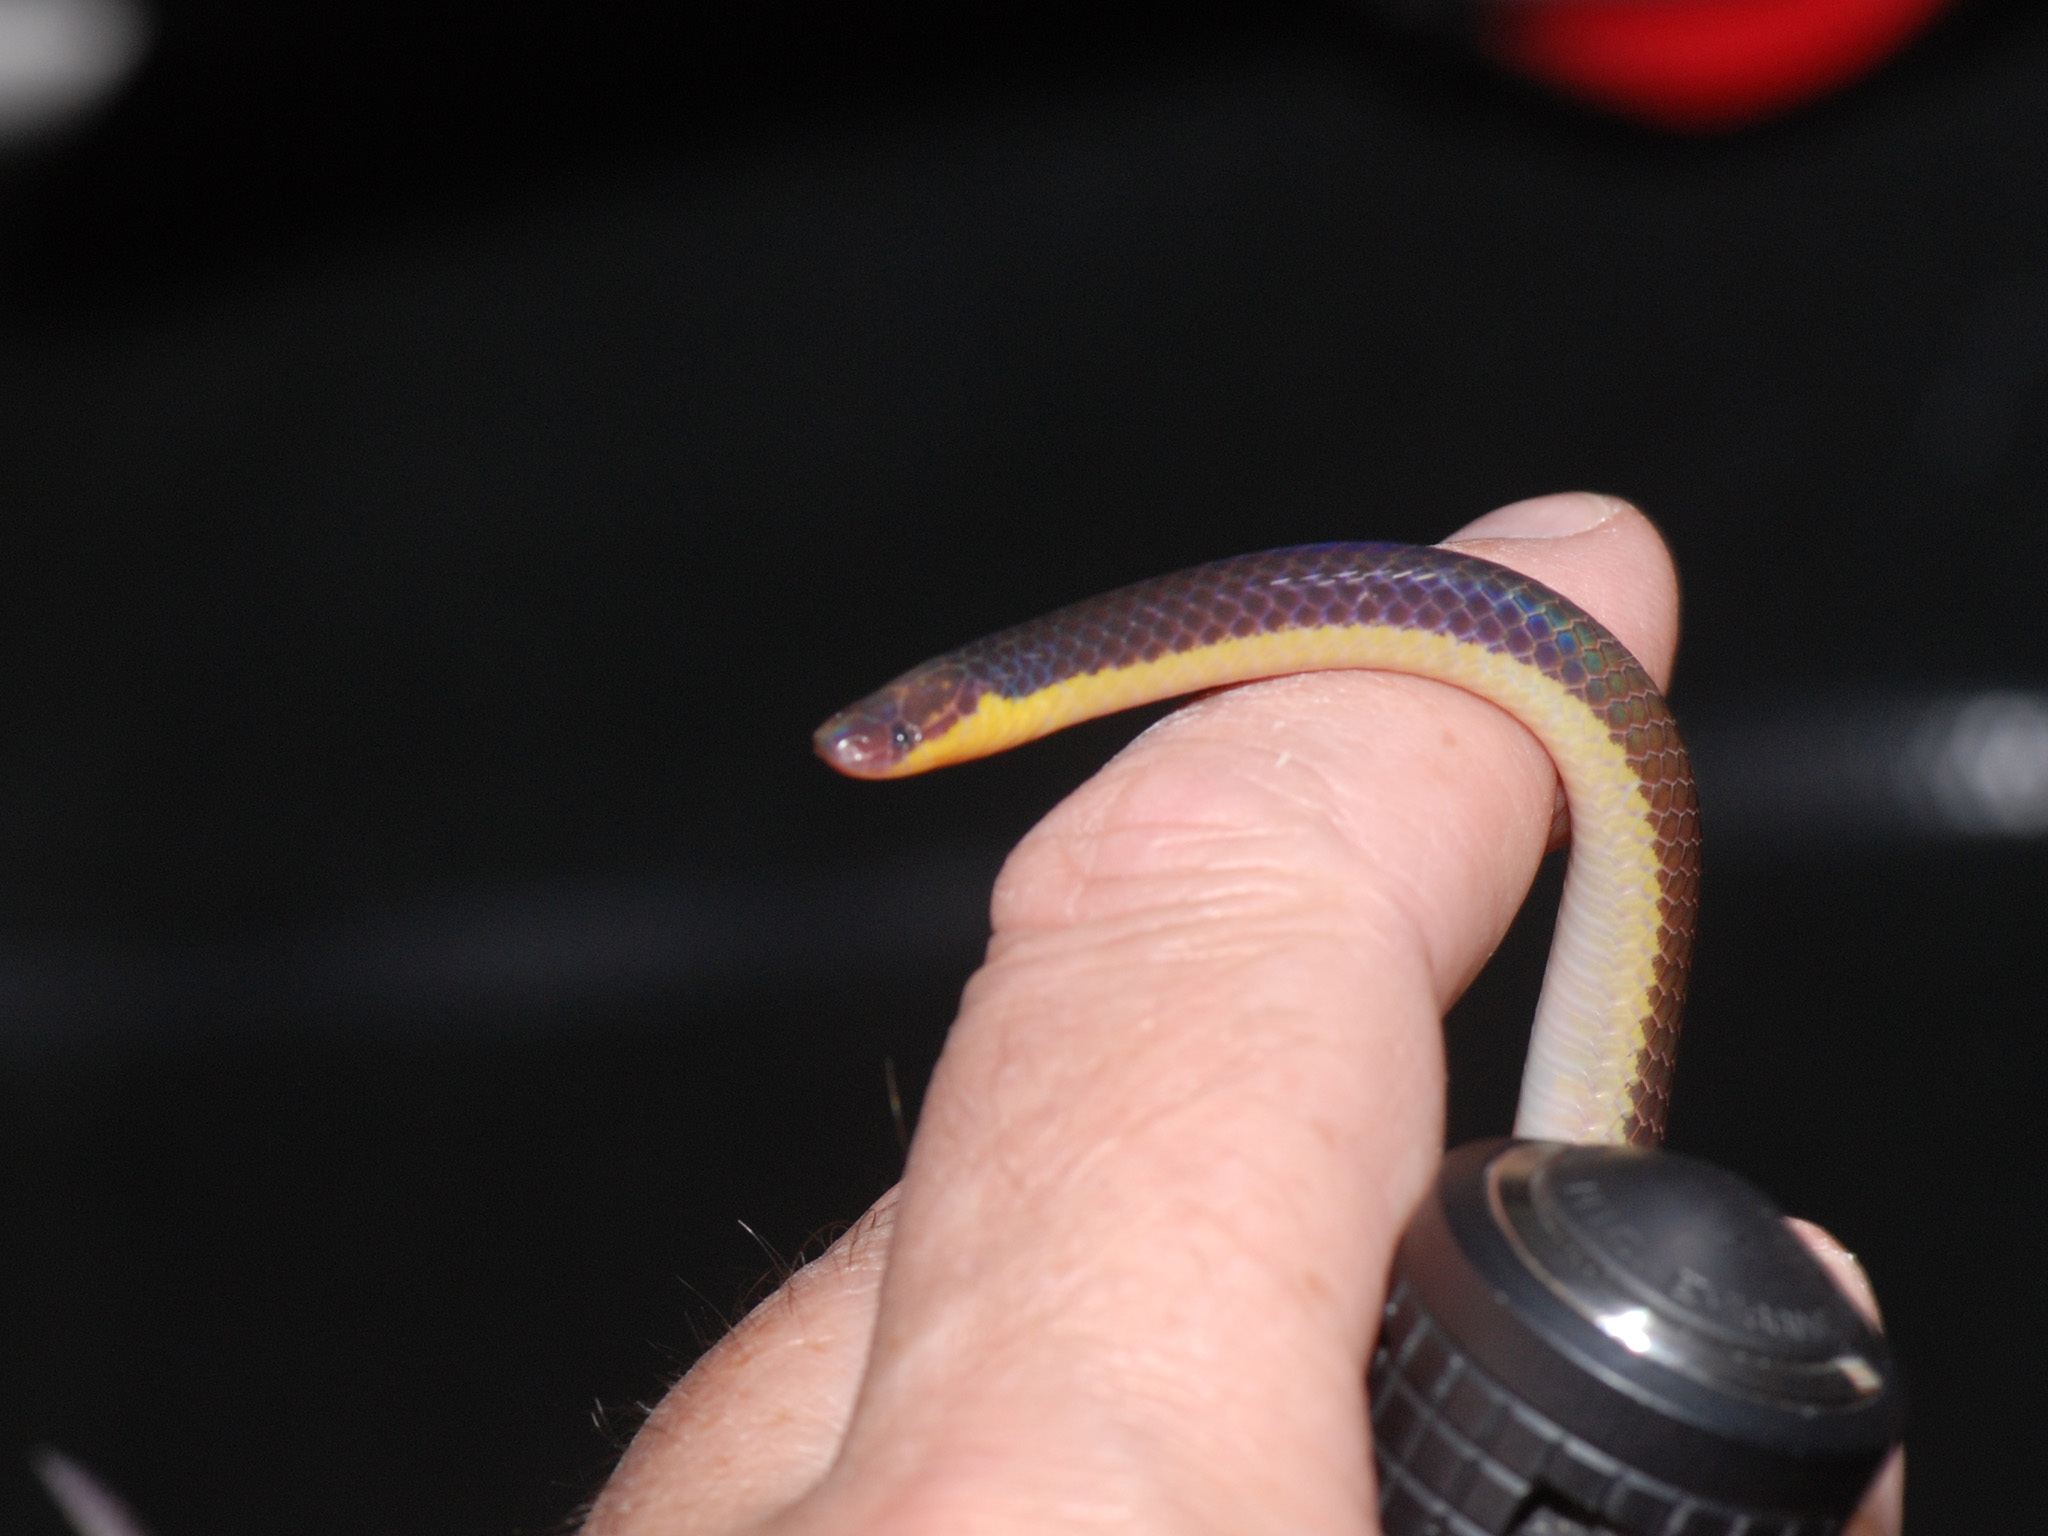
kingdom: Animalia
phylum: Chordata
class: Squamata
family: Colubridae
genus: Calamaria
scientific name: Calamaria schlegeli
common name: Red-headed reed snake
